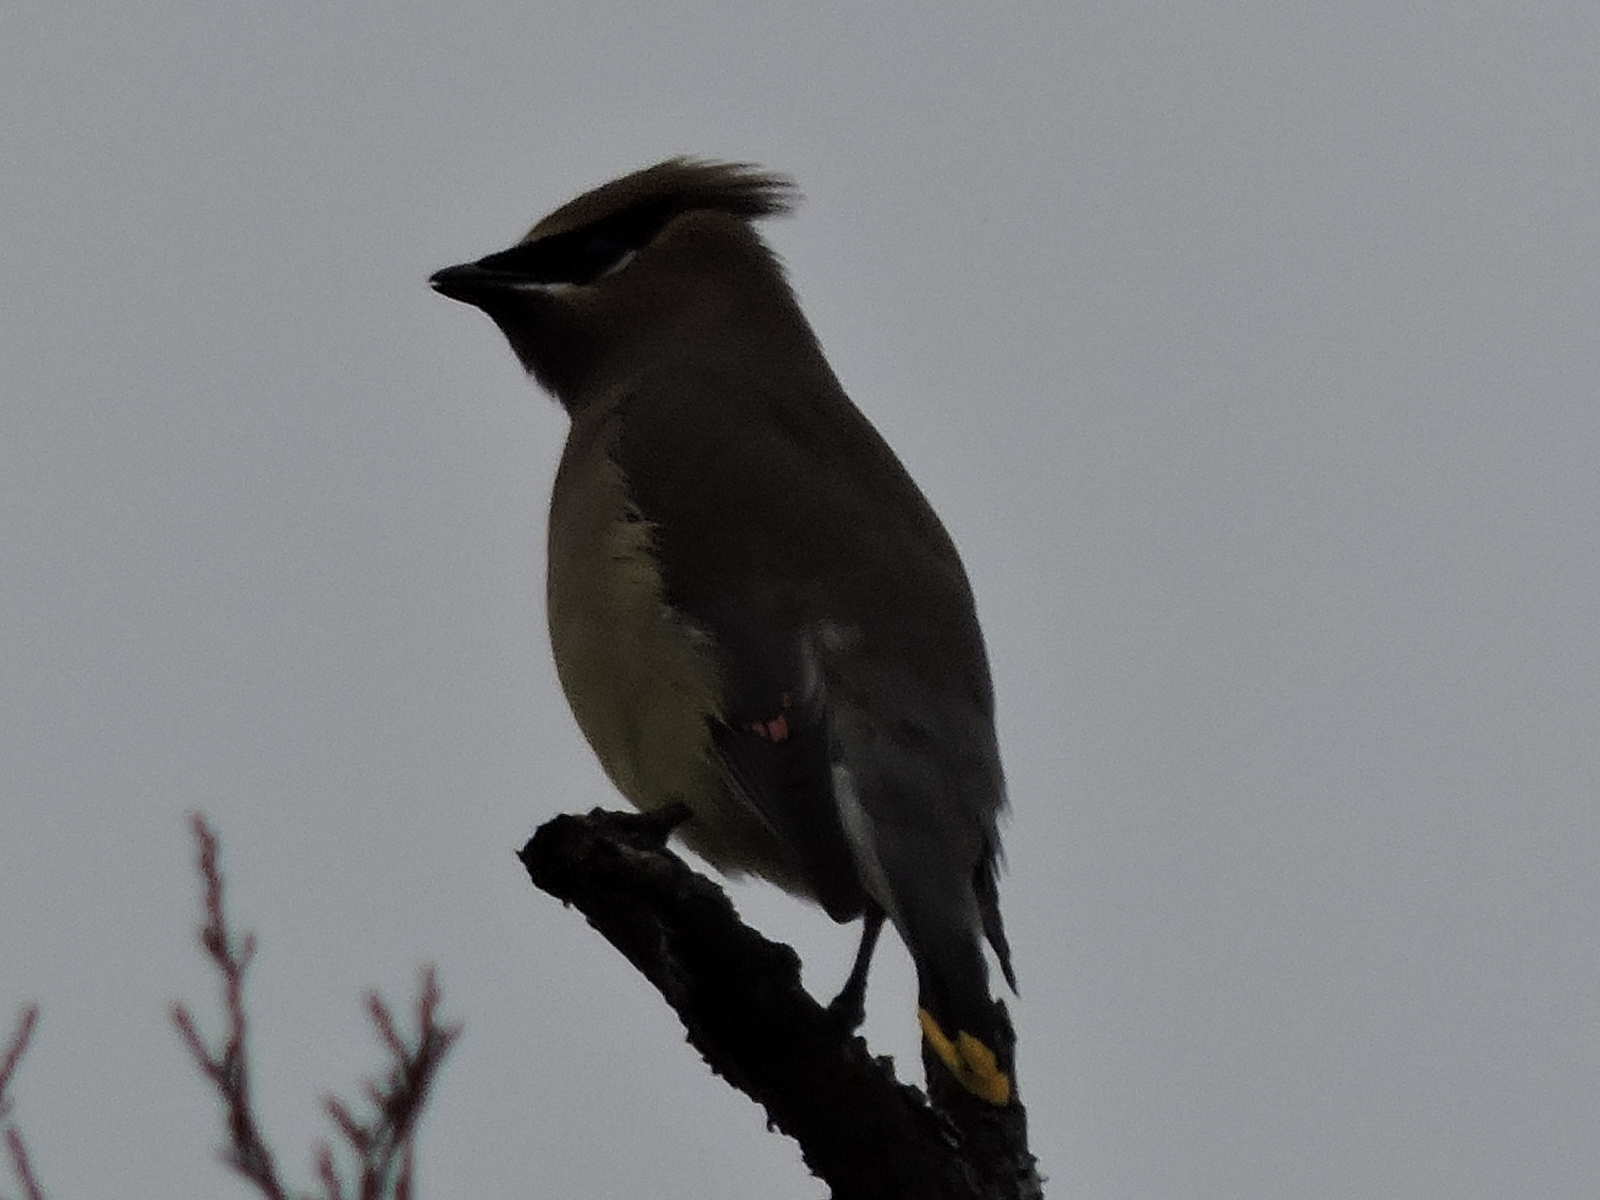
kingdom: Animalia
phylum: Chordata
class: Aves
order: Passeriformes
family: Bombycillidae
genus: Bombycilla
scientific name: Bombycilla cedrorum
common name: Cedar waxwing
